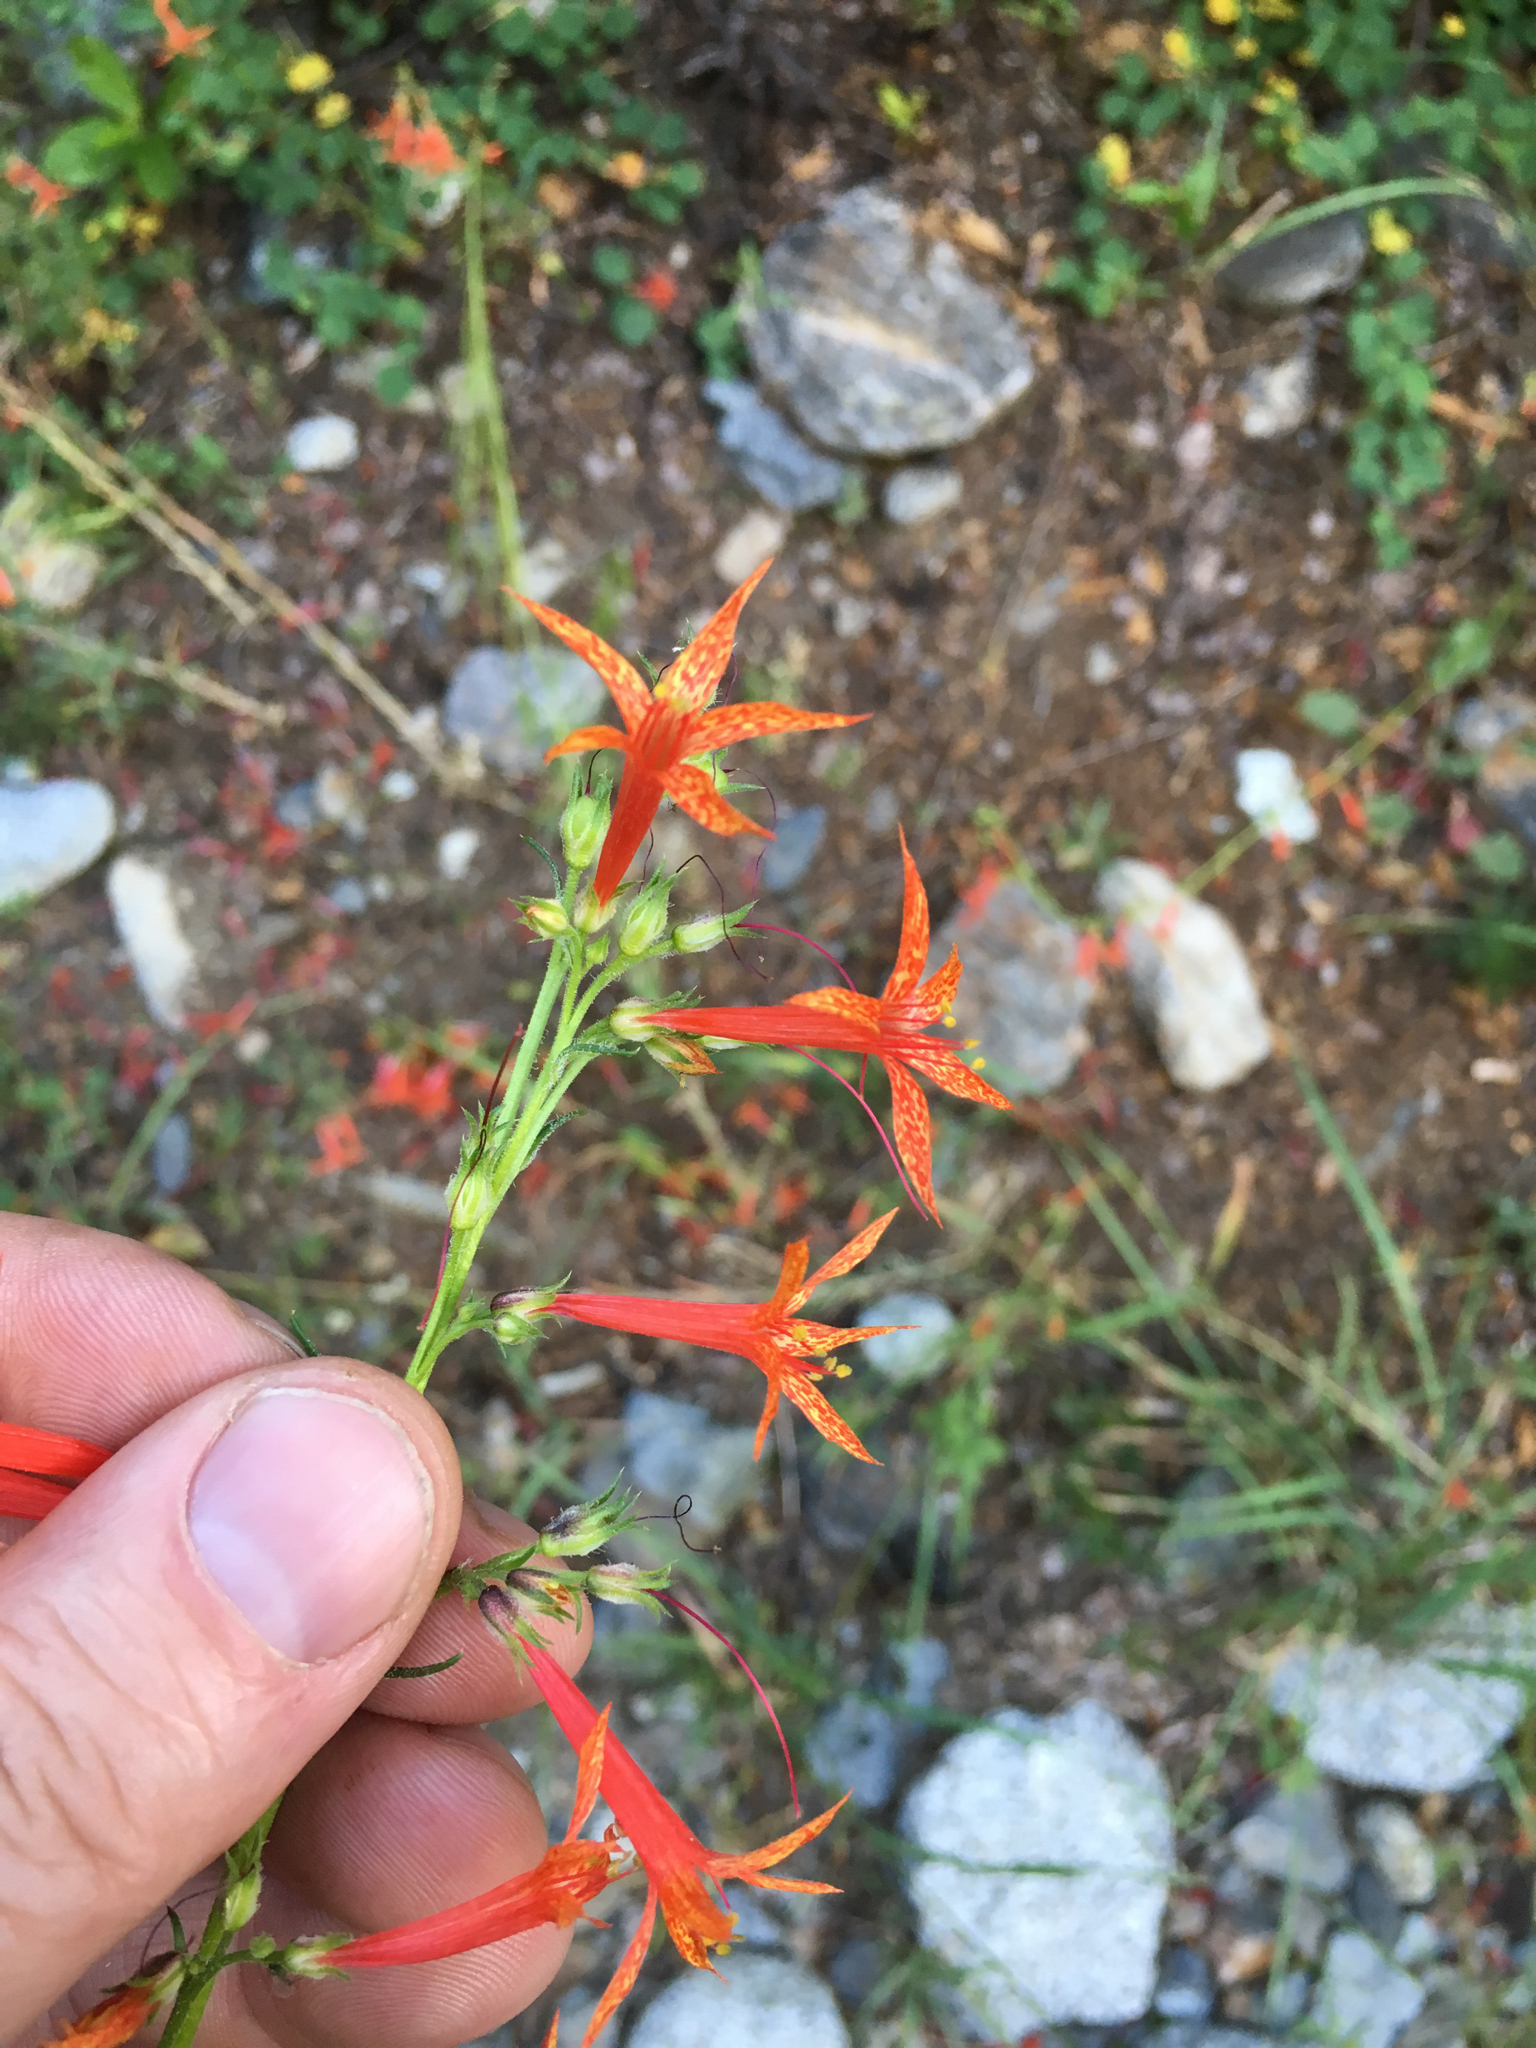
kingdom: Plantae
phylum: Tracheophyta
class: Magnoliopsida
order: Ericales
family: Polemoniaceae
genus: Ipomopsis
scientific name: Ipomopsis aggregata
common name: Scarlet gilia
